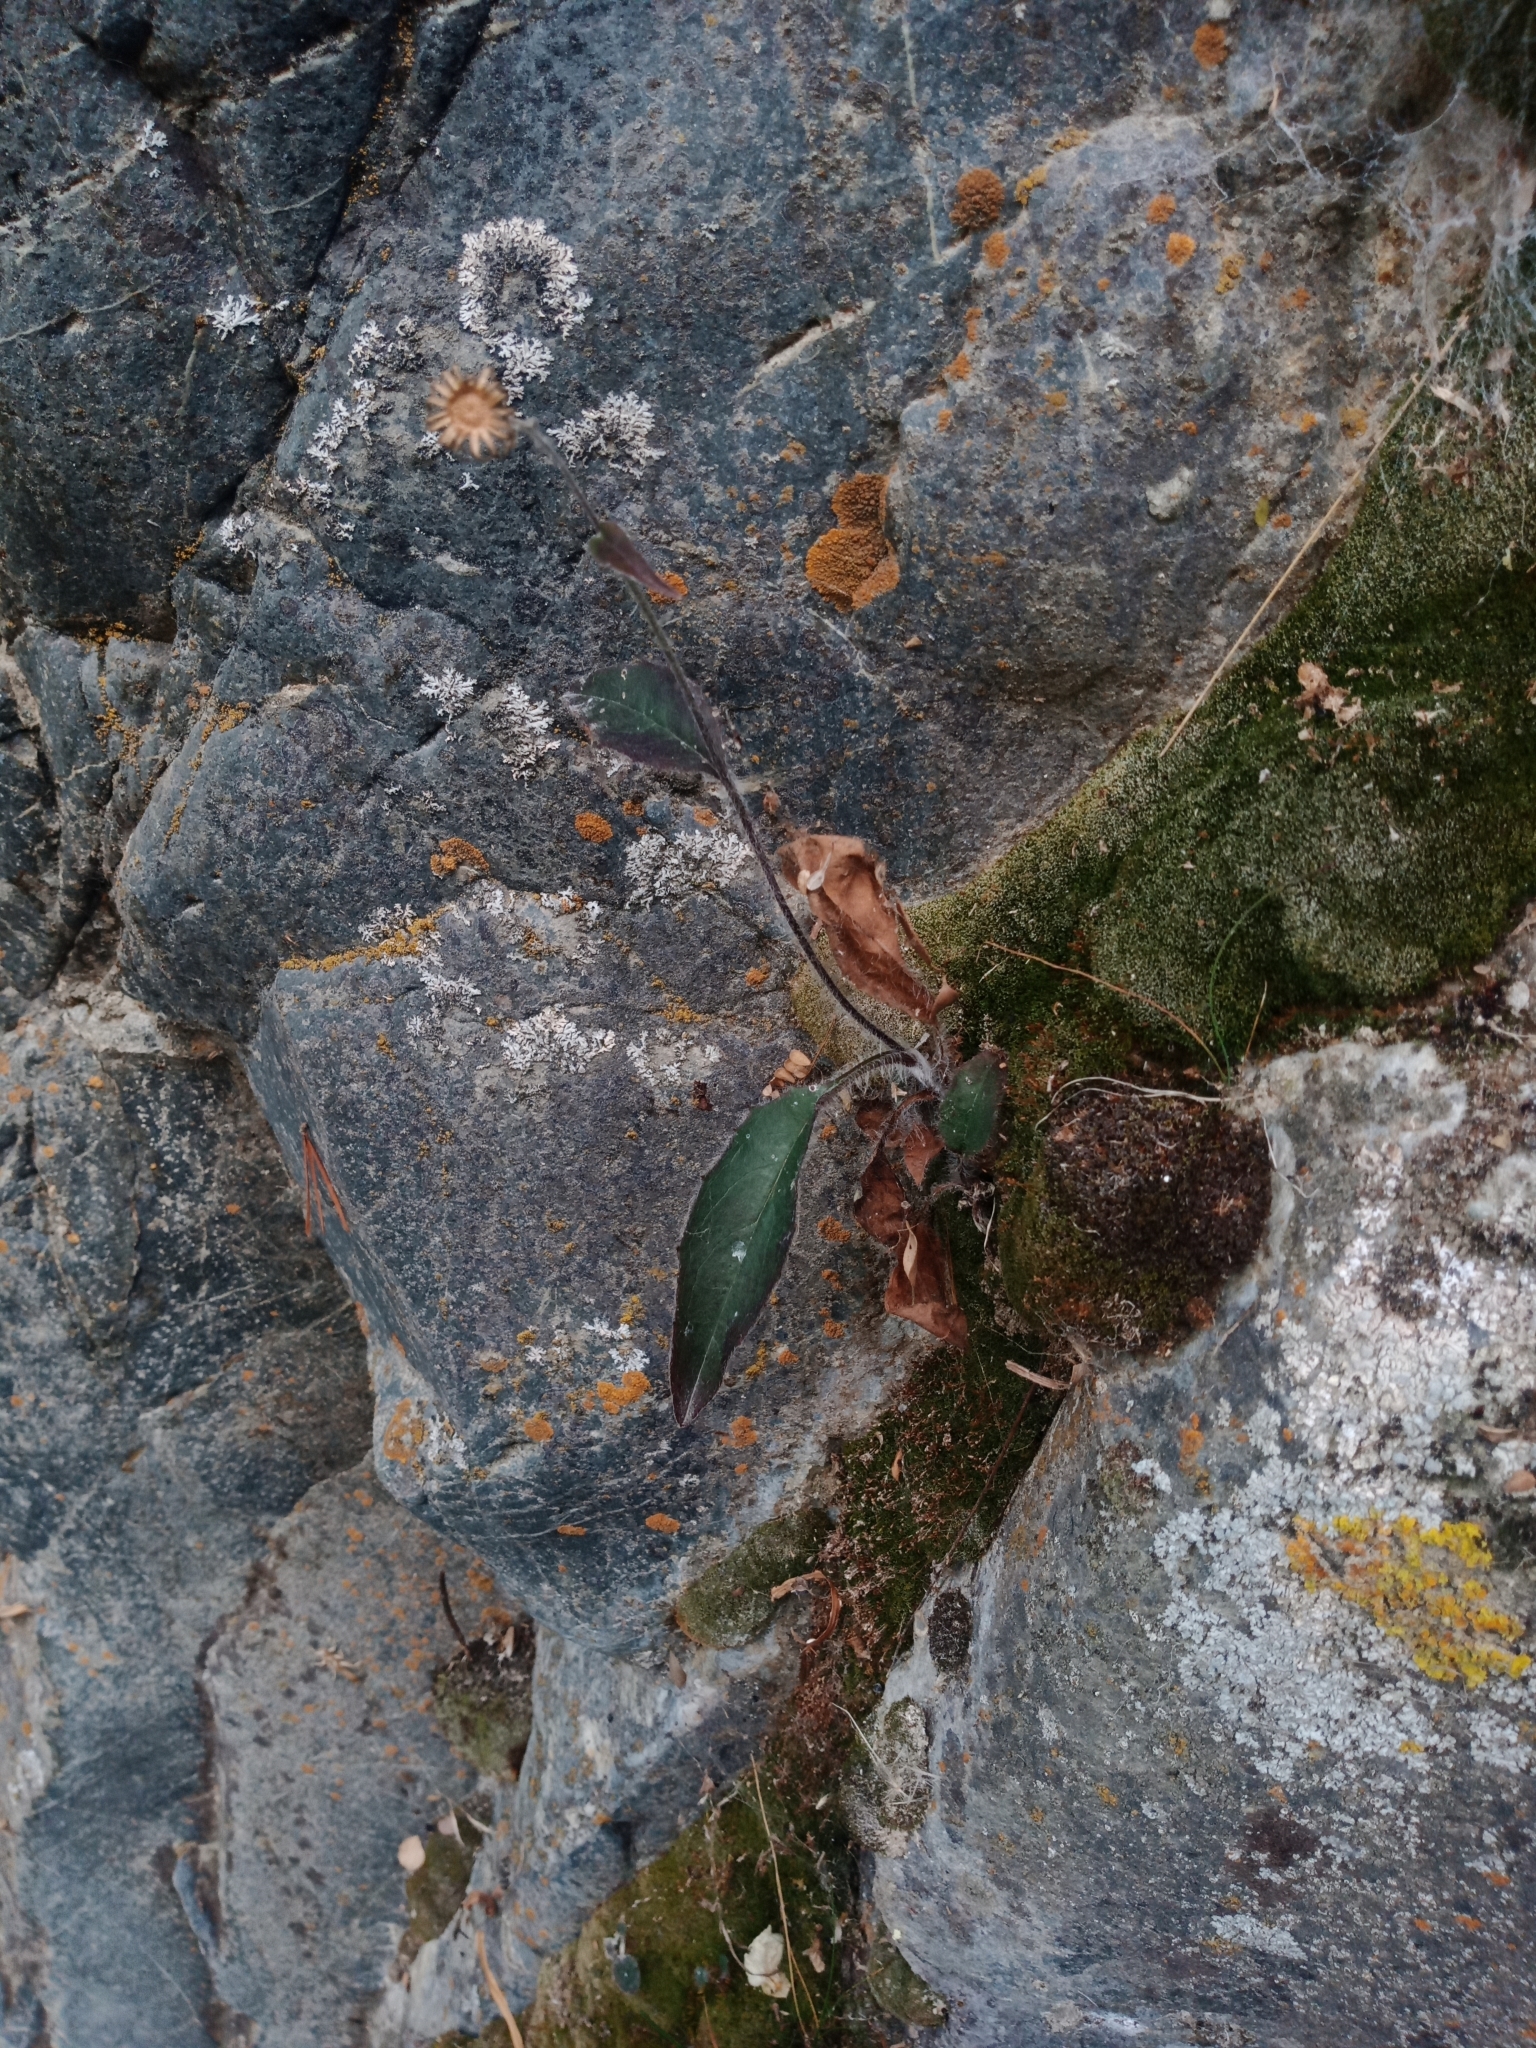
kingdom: Plantae
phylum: Tracheophyta
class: Magnoliopsida
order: Asterales
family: Asteraceae
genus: Hieracium
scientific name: Hieracium lepidulum
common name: Irregular-toothed hawkweed
